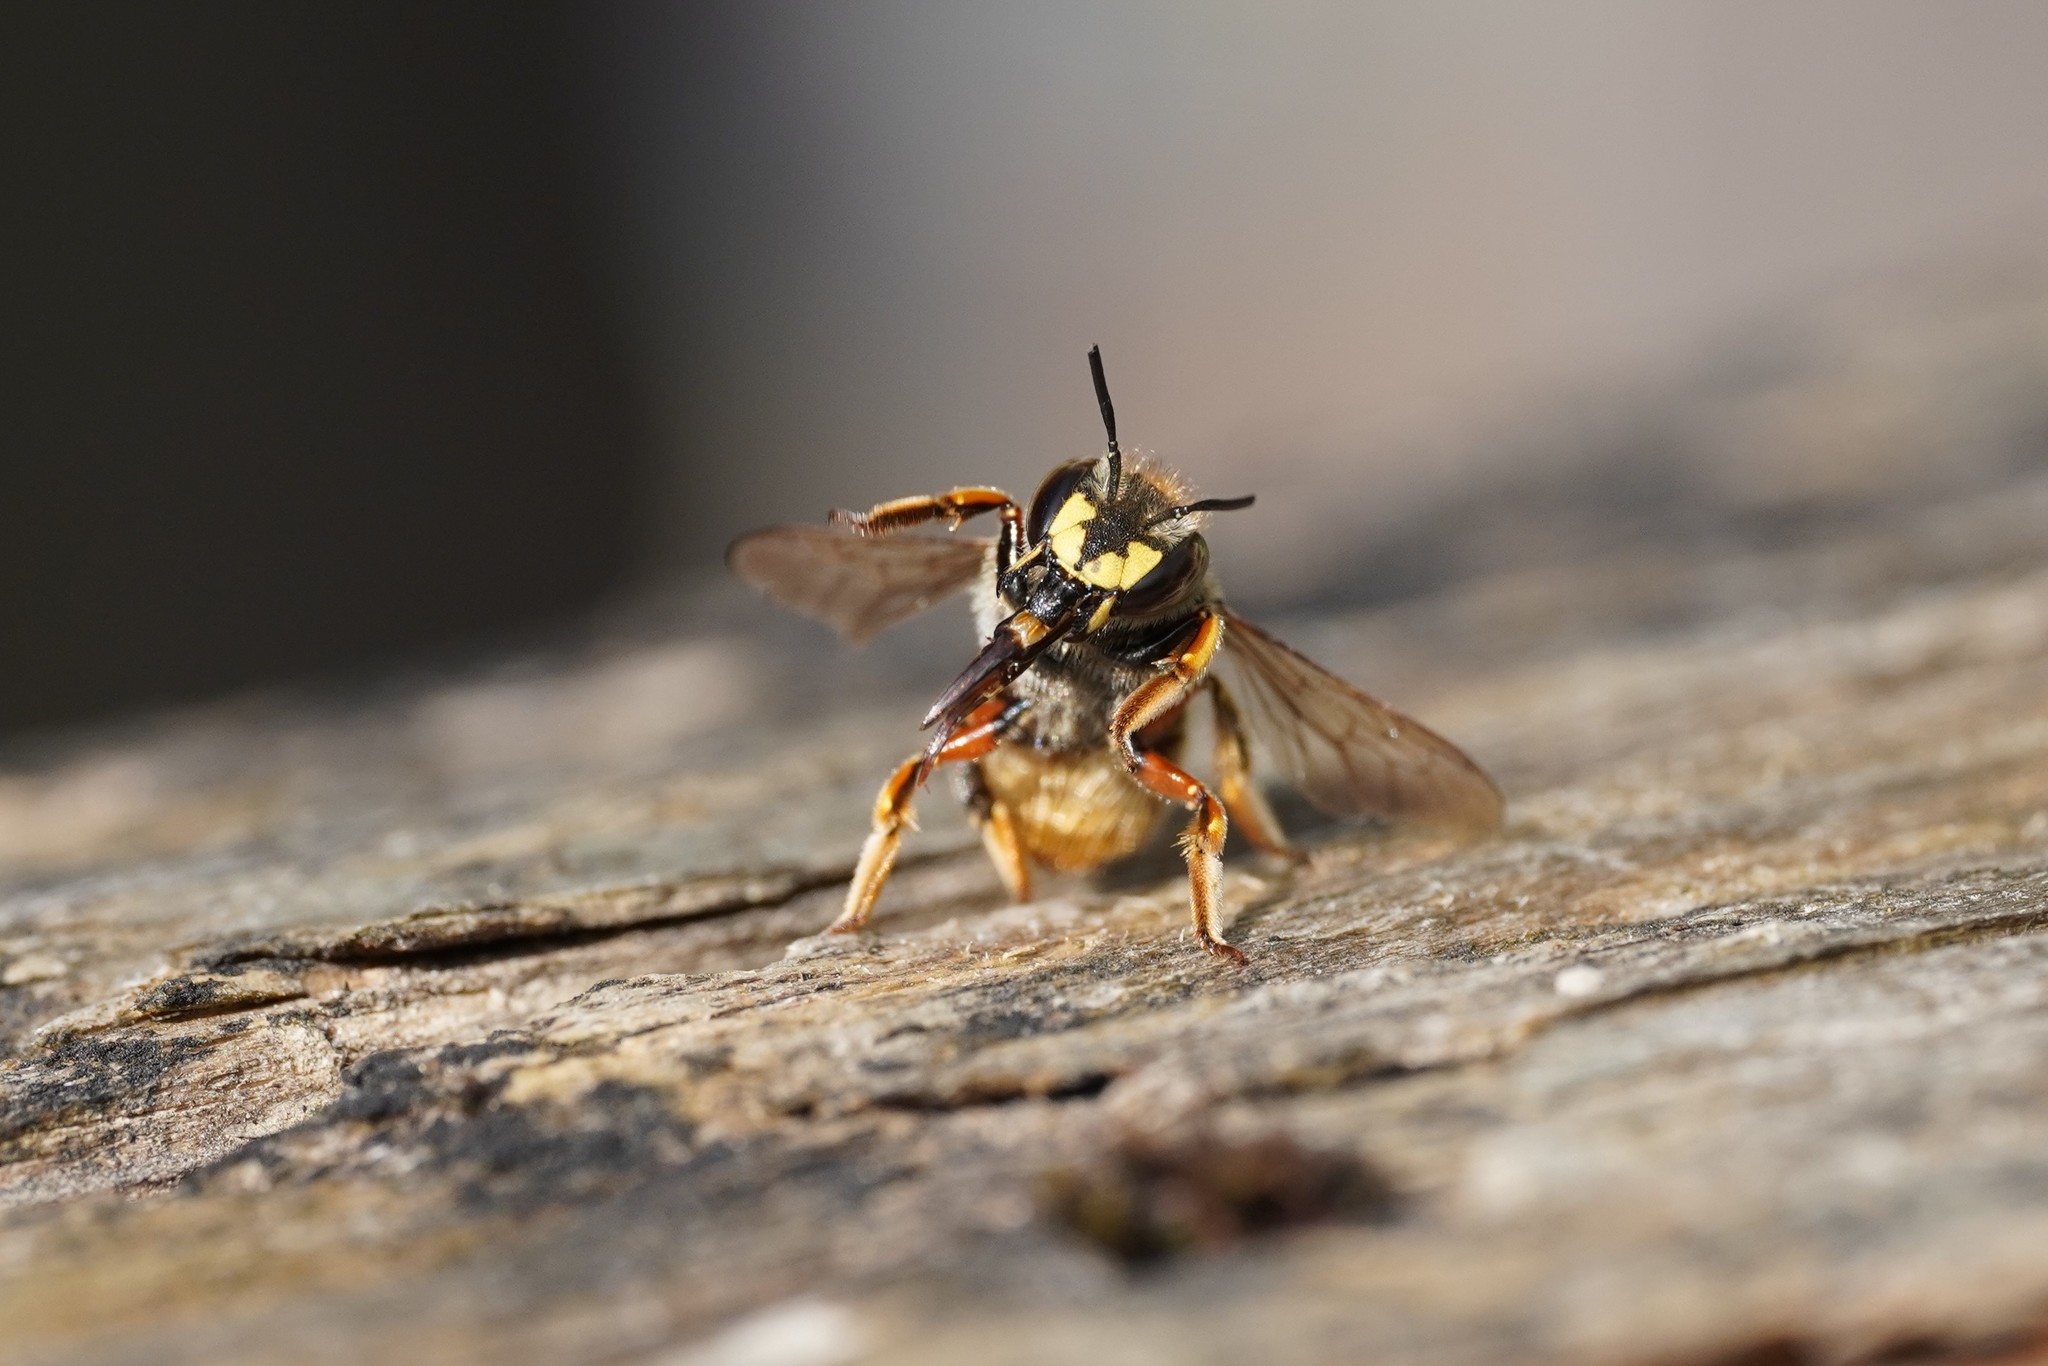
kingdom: Animalia
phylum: Arthropoda
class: Insecta
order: Hymenoptera
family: Megachilidae
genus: Anthidium
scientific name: Anthidium manicatum
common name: Wool carder bee
